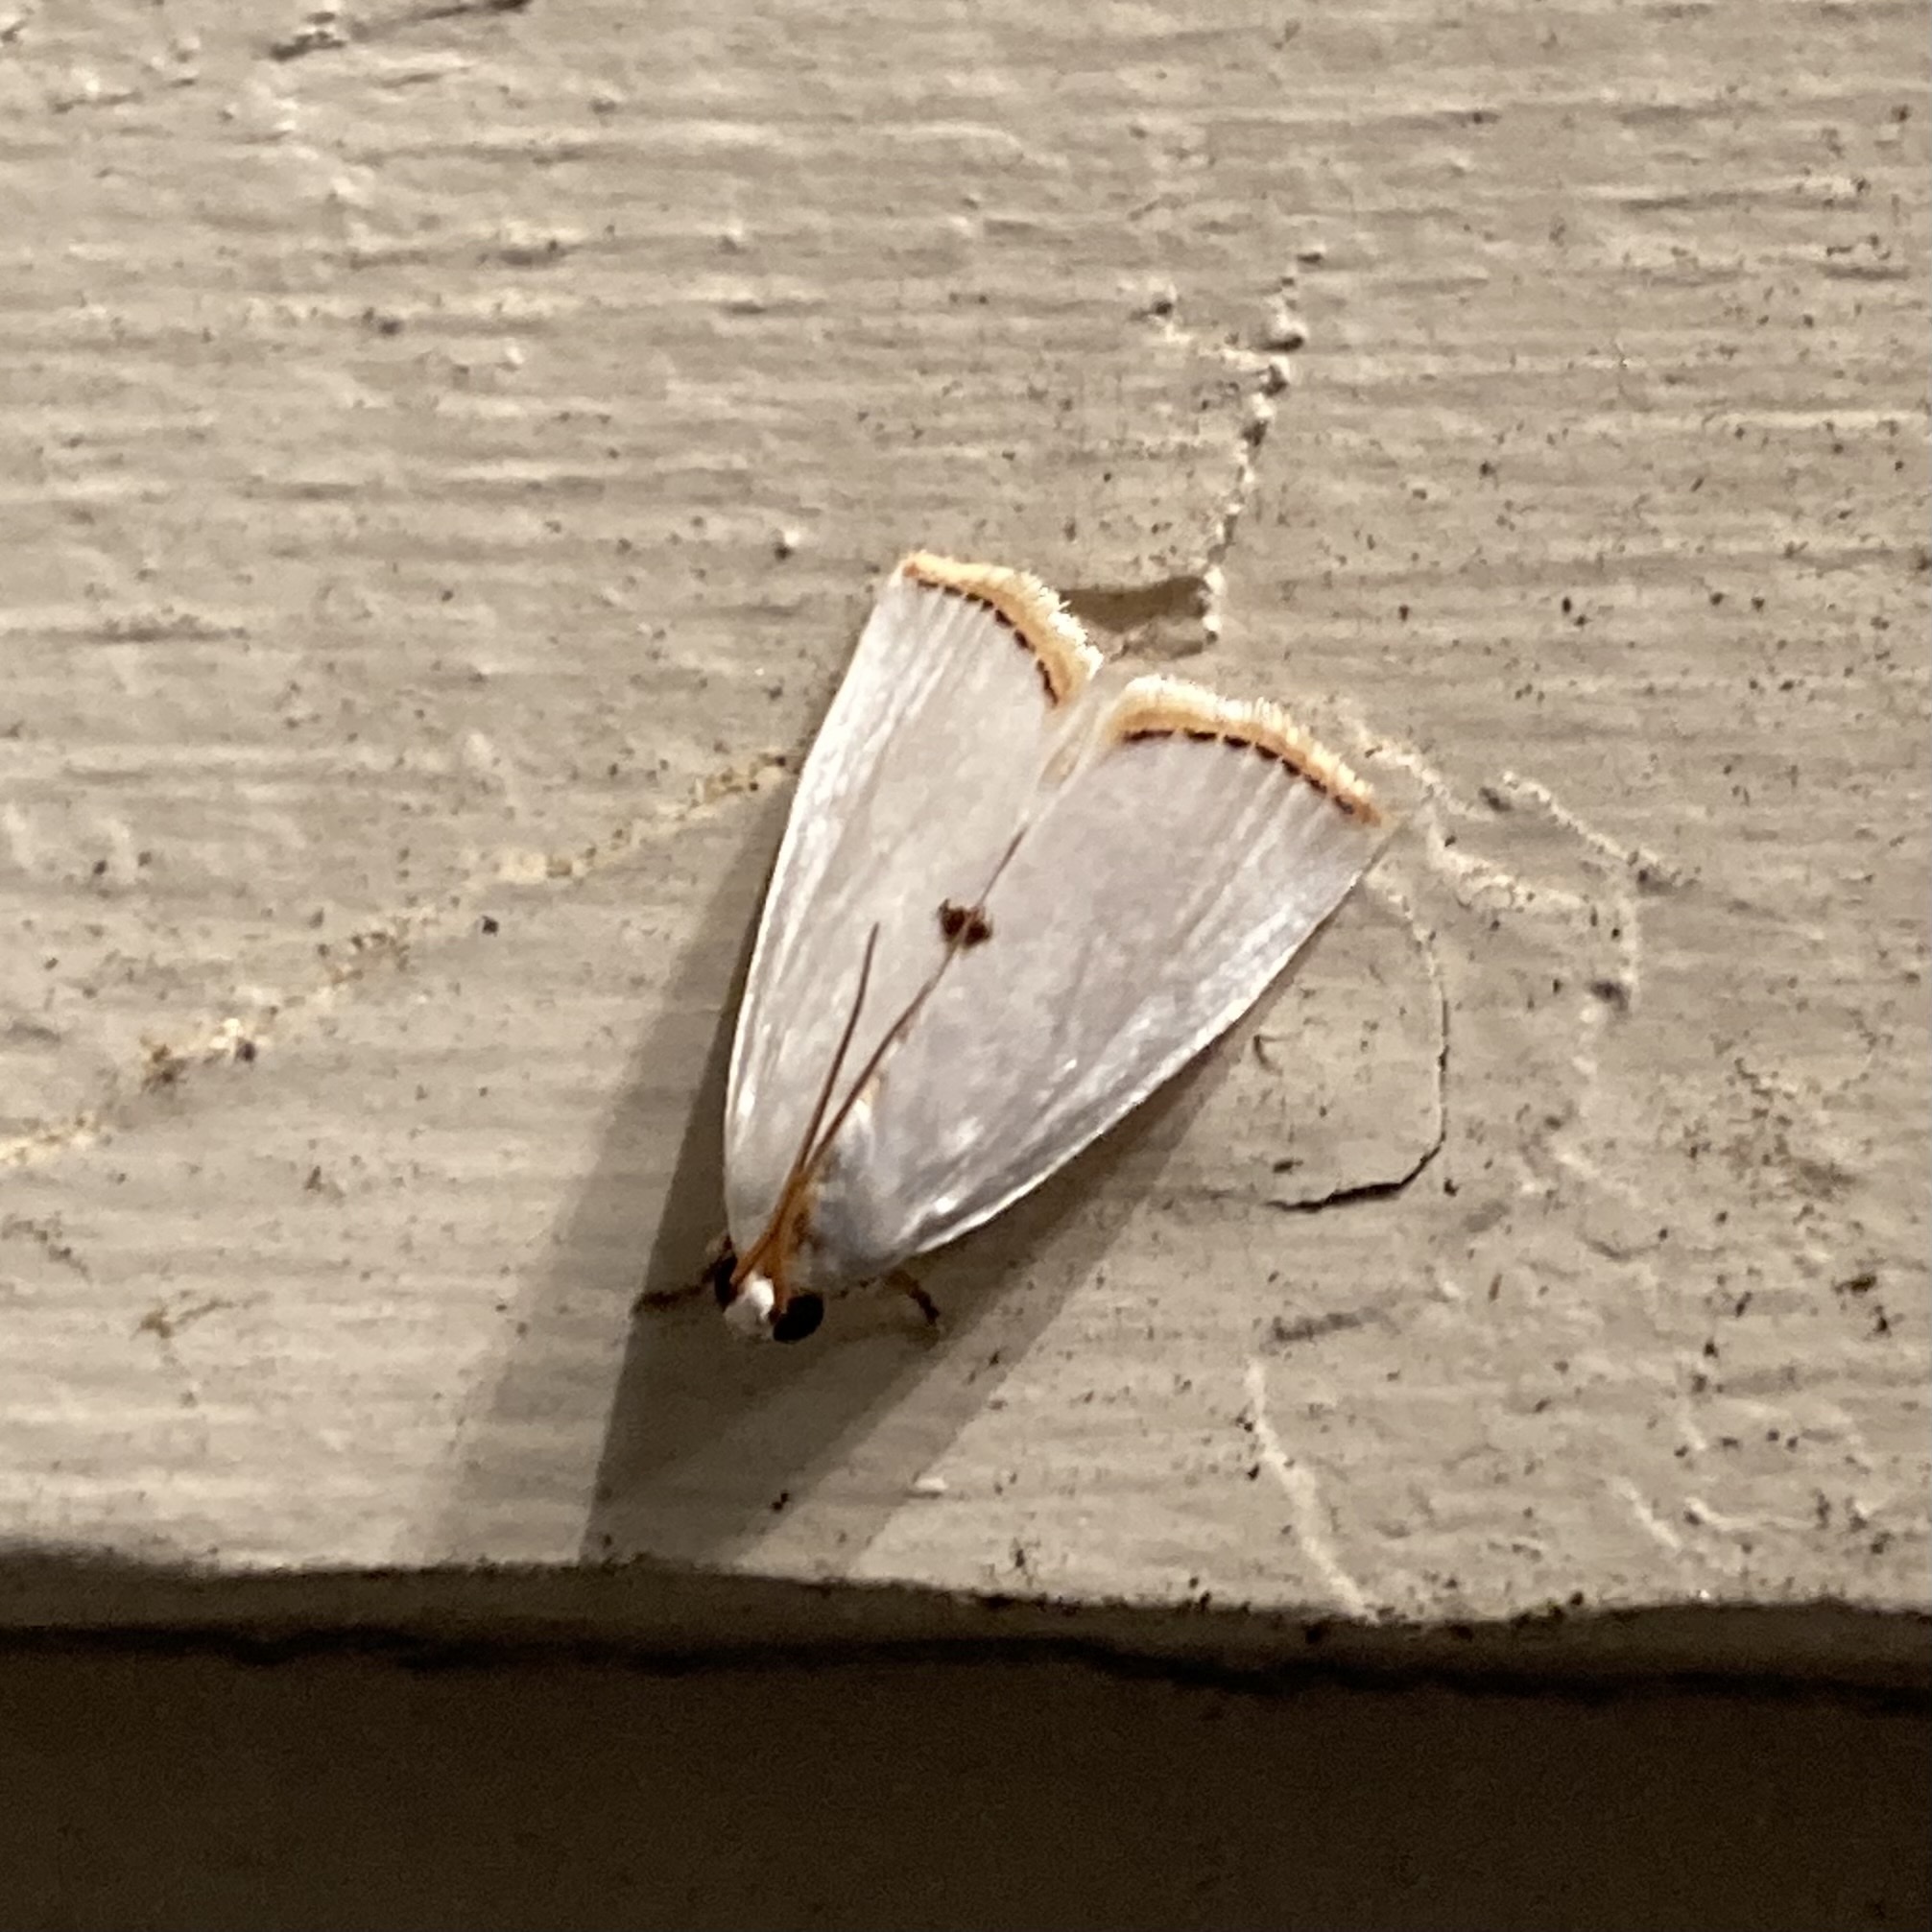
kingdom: Animalia
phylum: Arthropoda
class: Insecta
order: Lepidoptera
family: Crambidae
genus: Argyria
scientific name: Argyria nivalis
